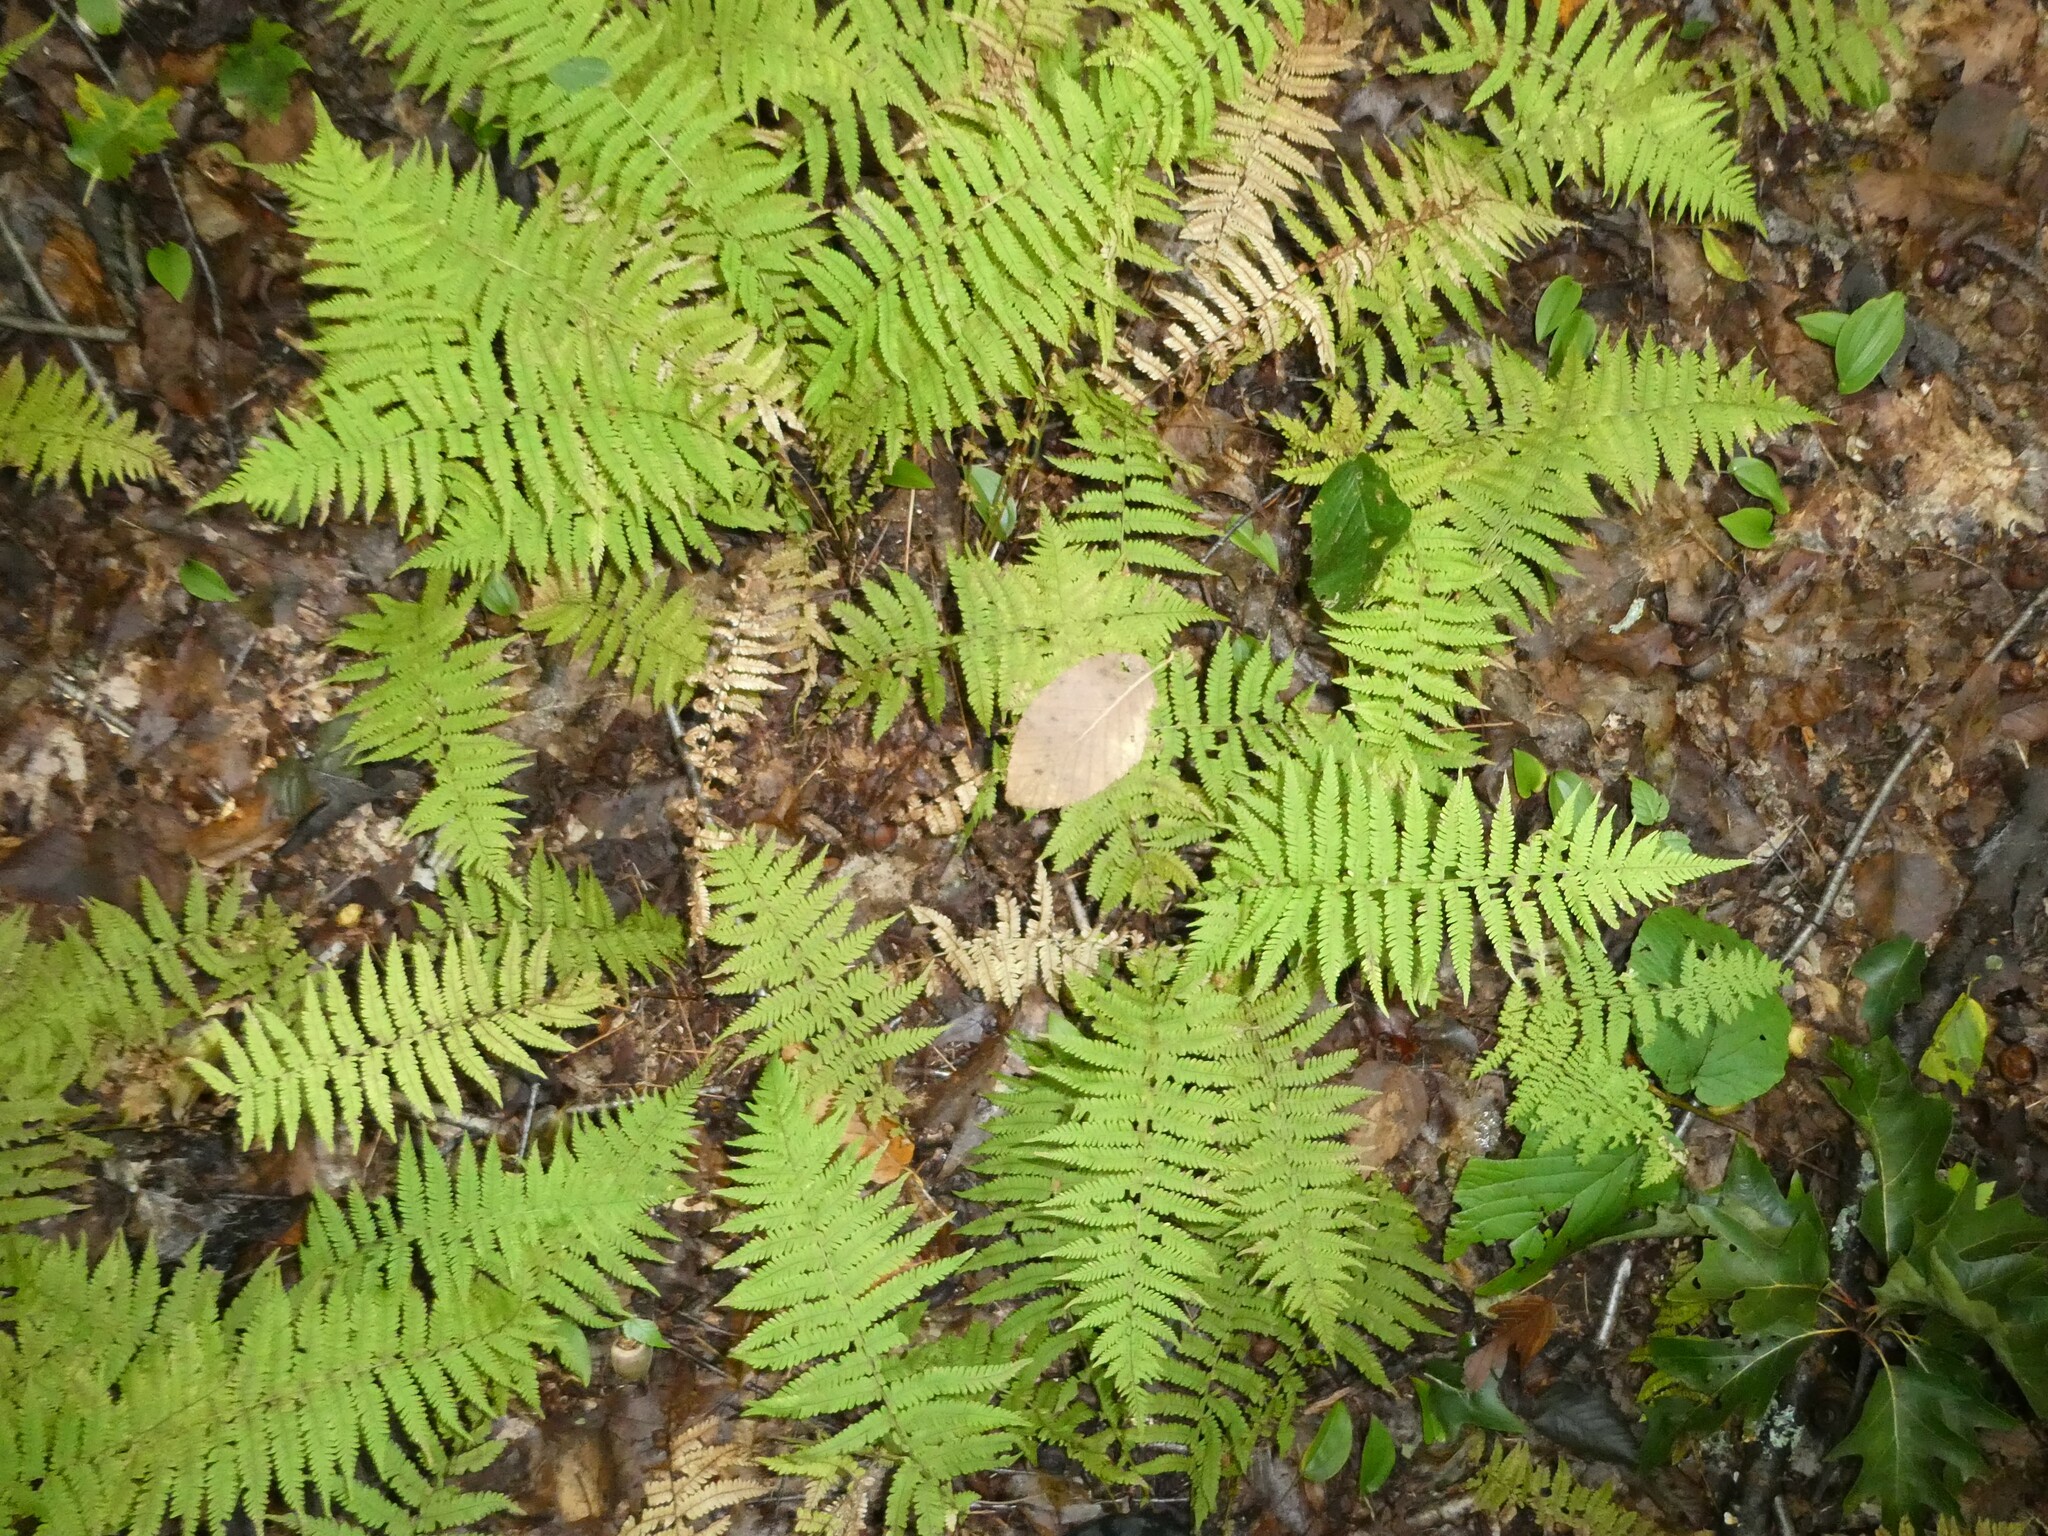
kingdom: Plantae
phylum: Tracheophyta
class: Polypodiopsida
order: Polypodiales
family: Thelypteridaceae
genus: Amauropelta
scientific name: Amauropelta noveboracensis
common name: New york fern
